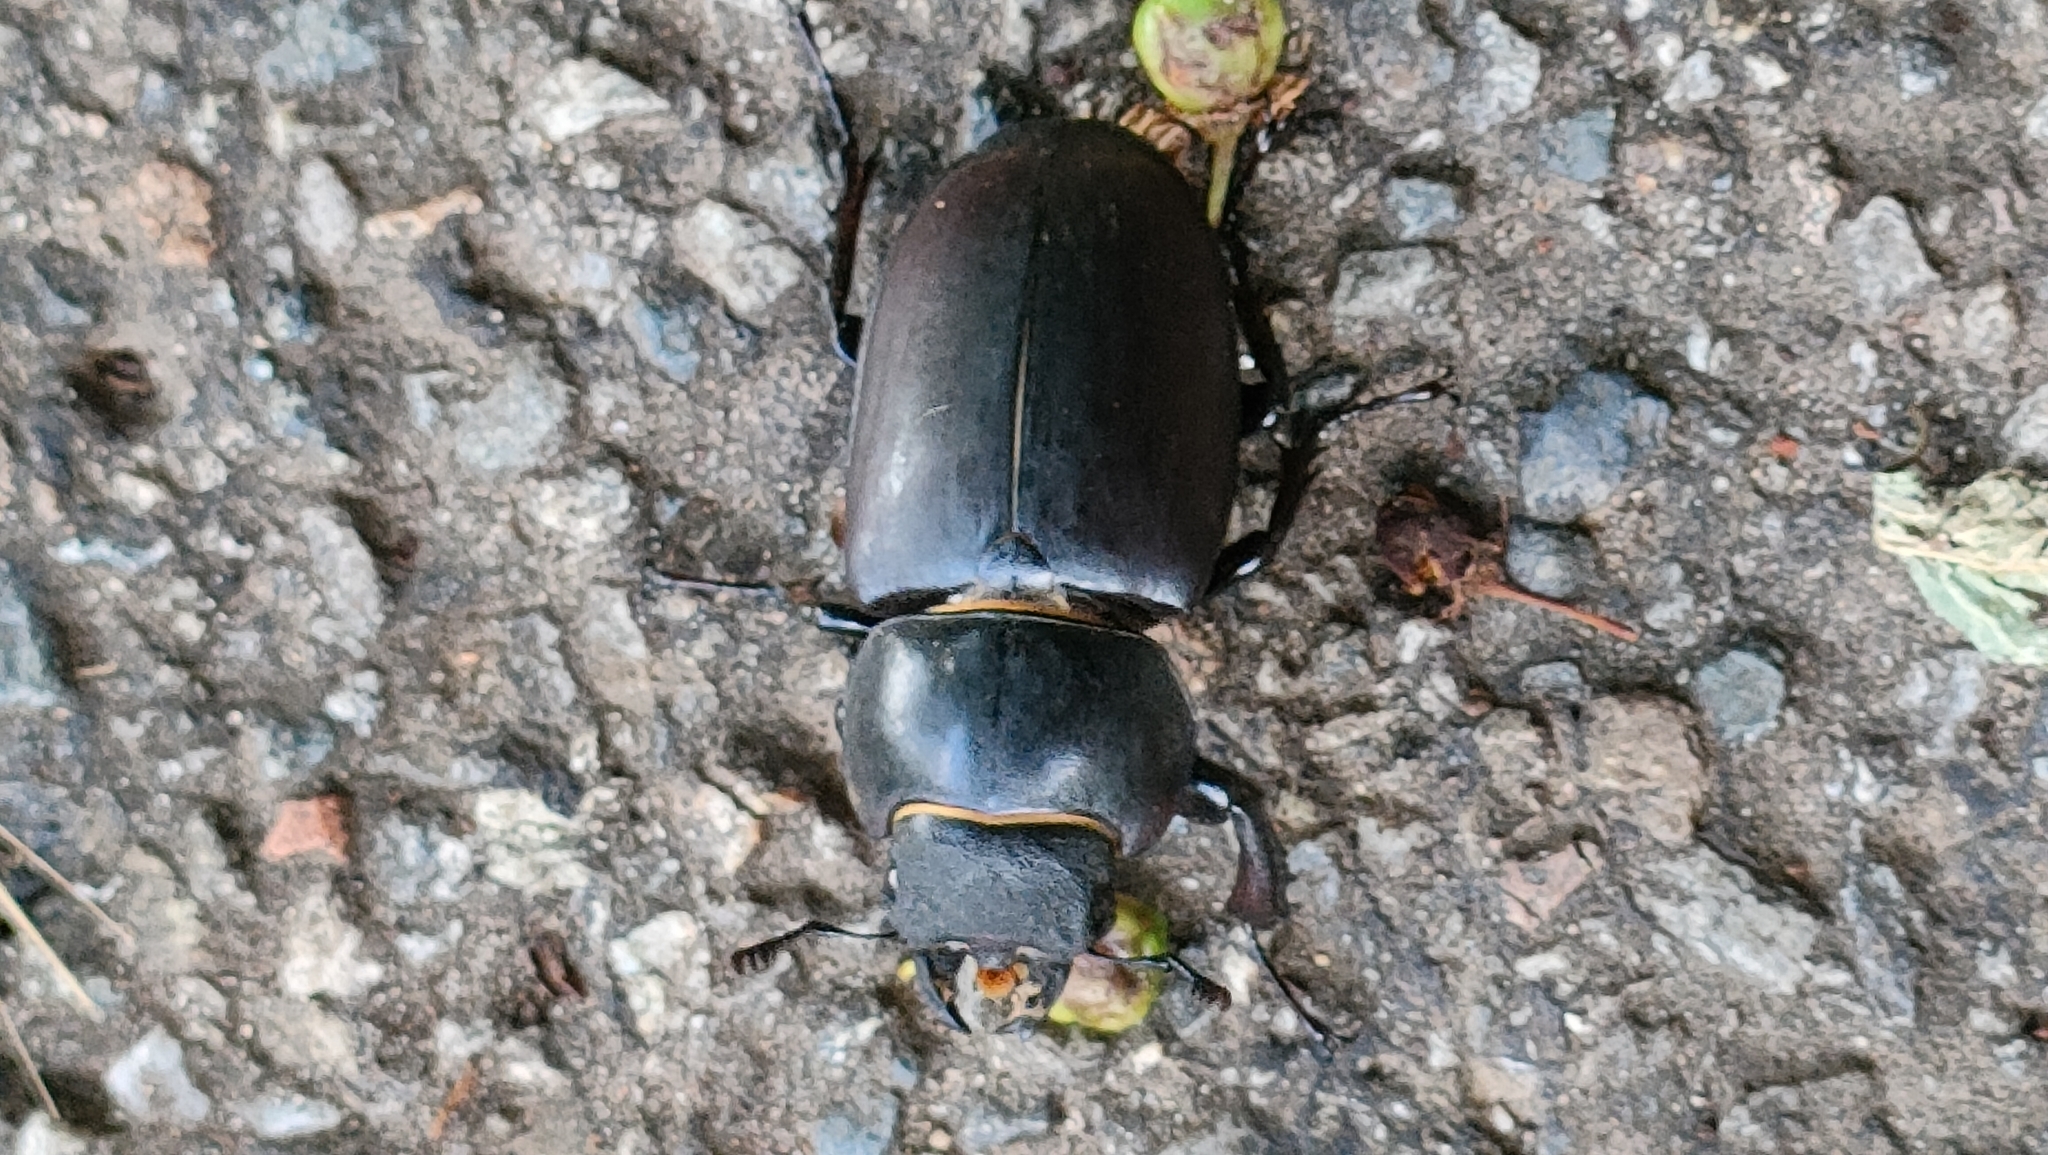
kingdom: Animalia
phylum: Arthropoda
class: Insecta
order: Coleoptera
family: Lucanidae
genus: Lucanus
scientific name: Lucanus cervus
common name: Stag beetle
